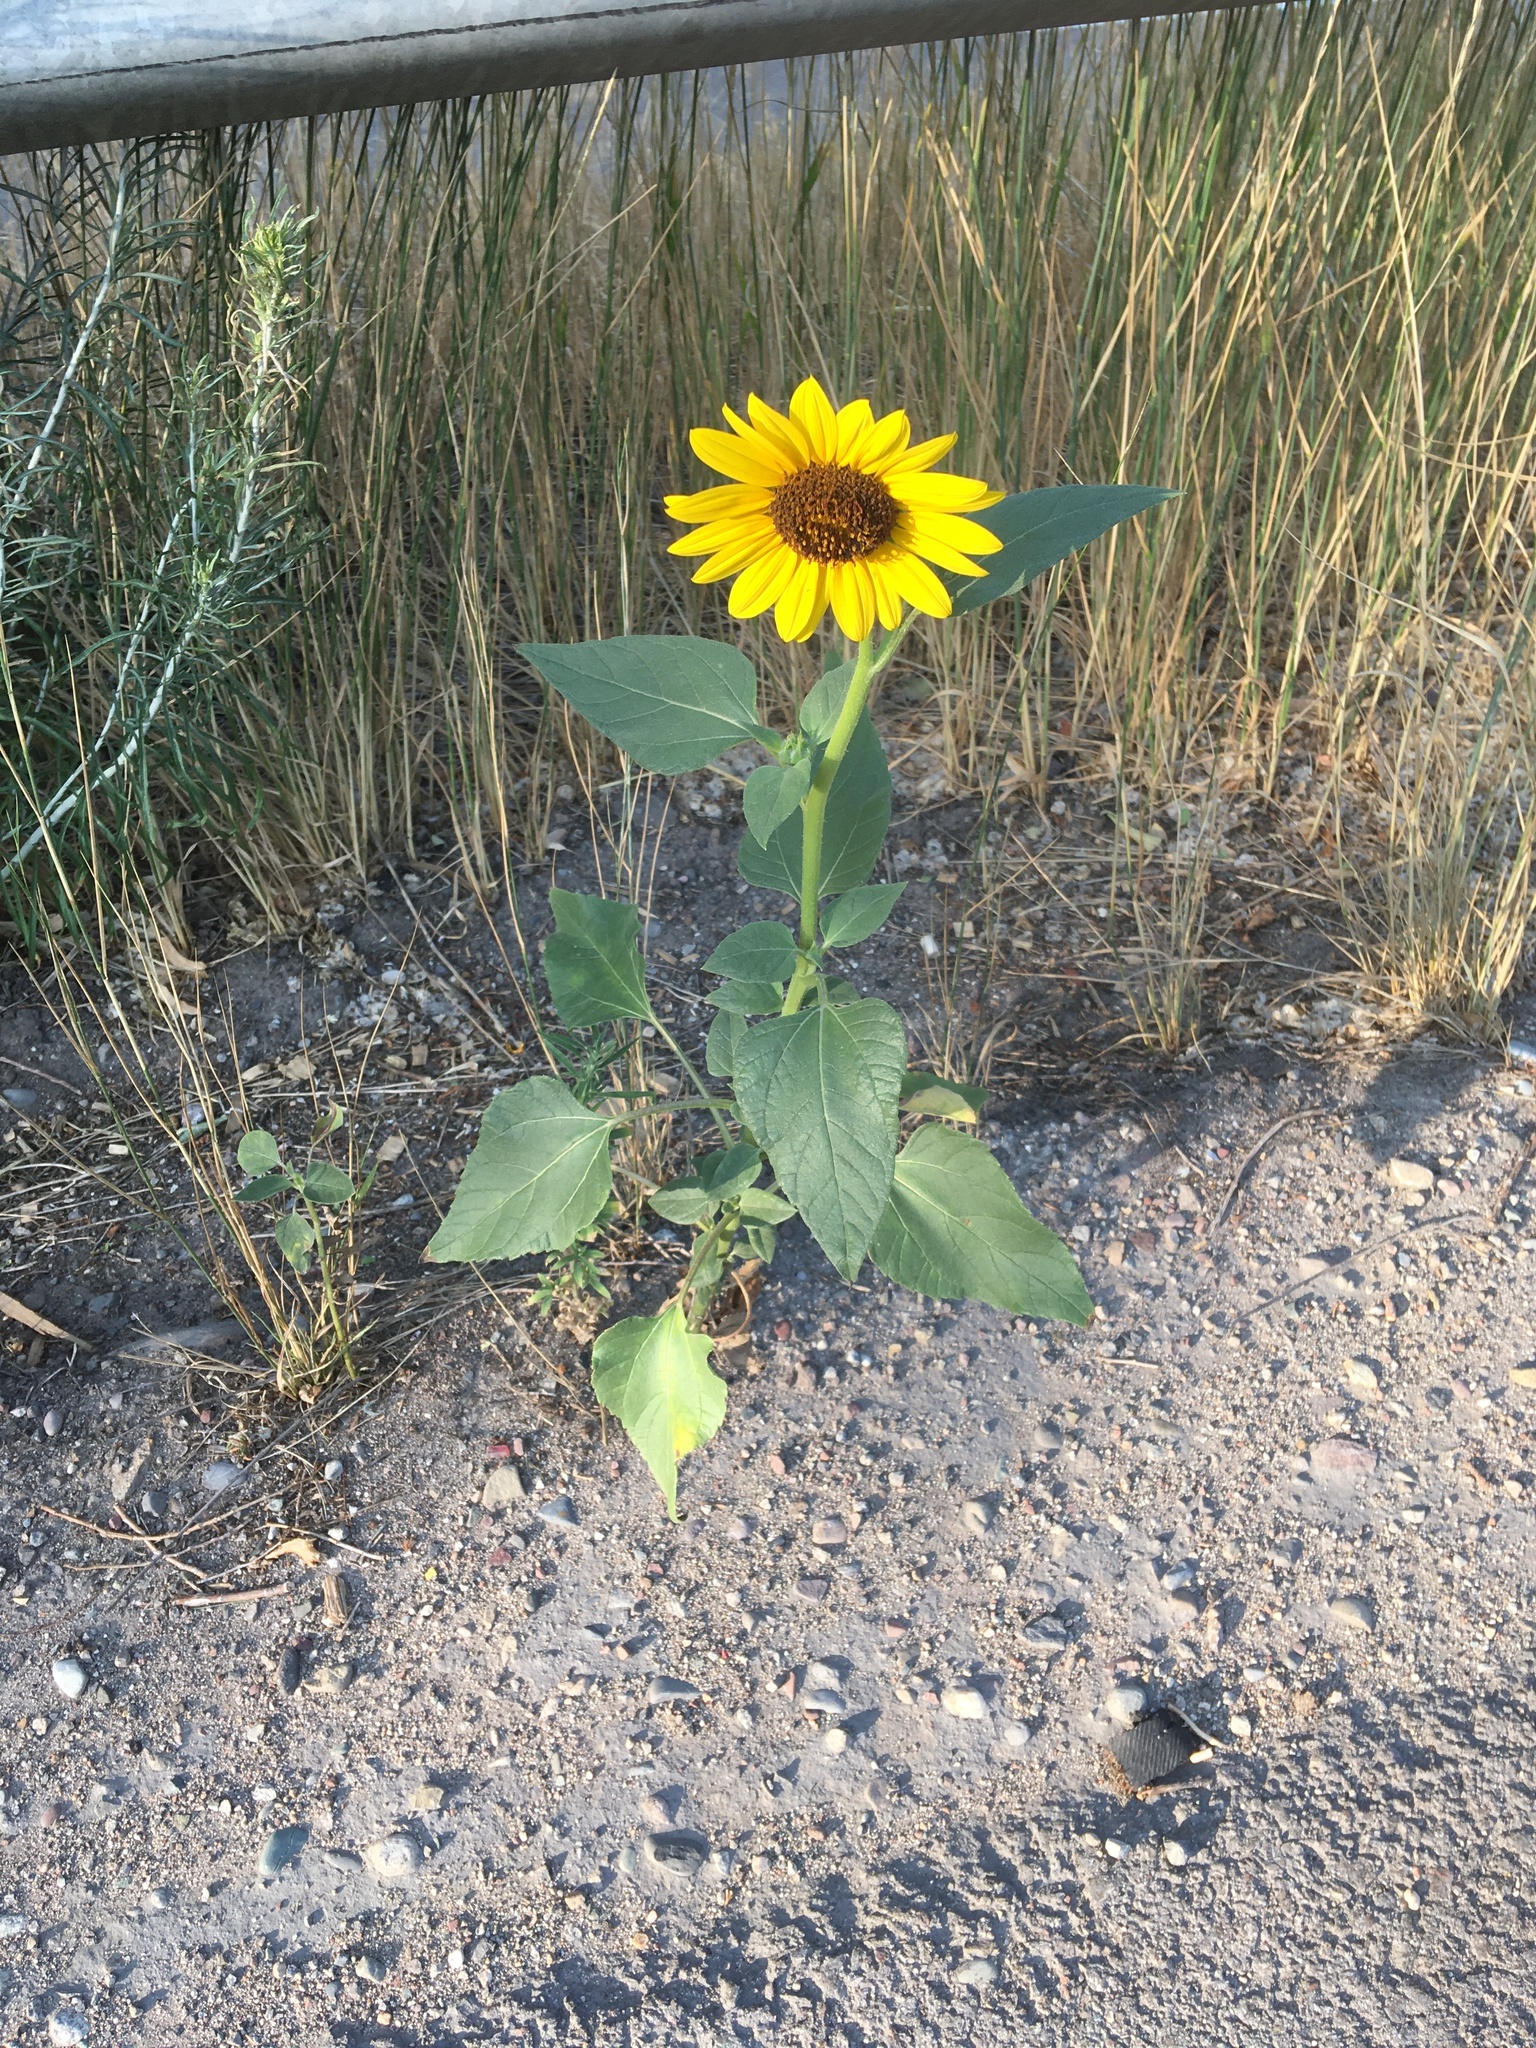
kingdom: Plantae
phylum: Tracheophyta
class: Magnoliopsida
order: Asterales
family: Asteraceae
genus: Helianthus
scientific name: Helianthus annuus
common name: Sunflower
